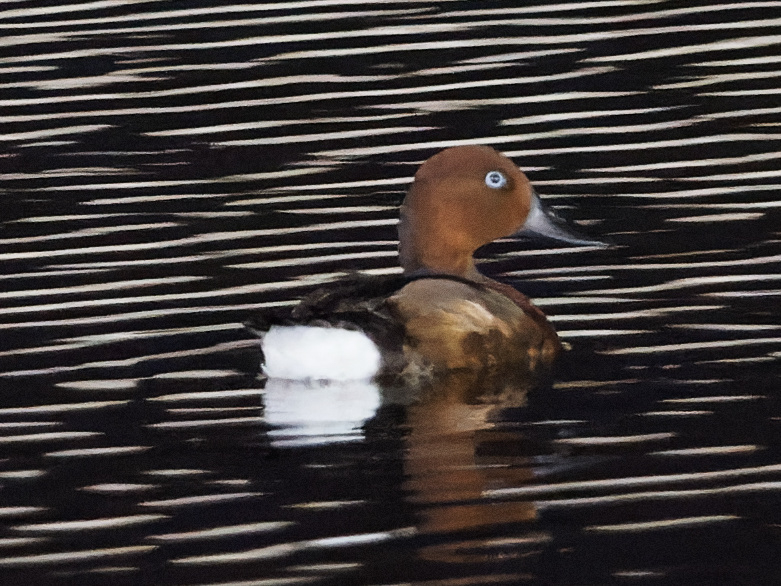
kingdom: Animalia
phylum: Chordata
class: Aves
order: Anseriformes
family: Anatidae
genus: Aythya
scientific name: Aythya nyroca
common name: Ferruginous duck
